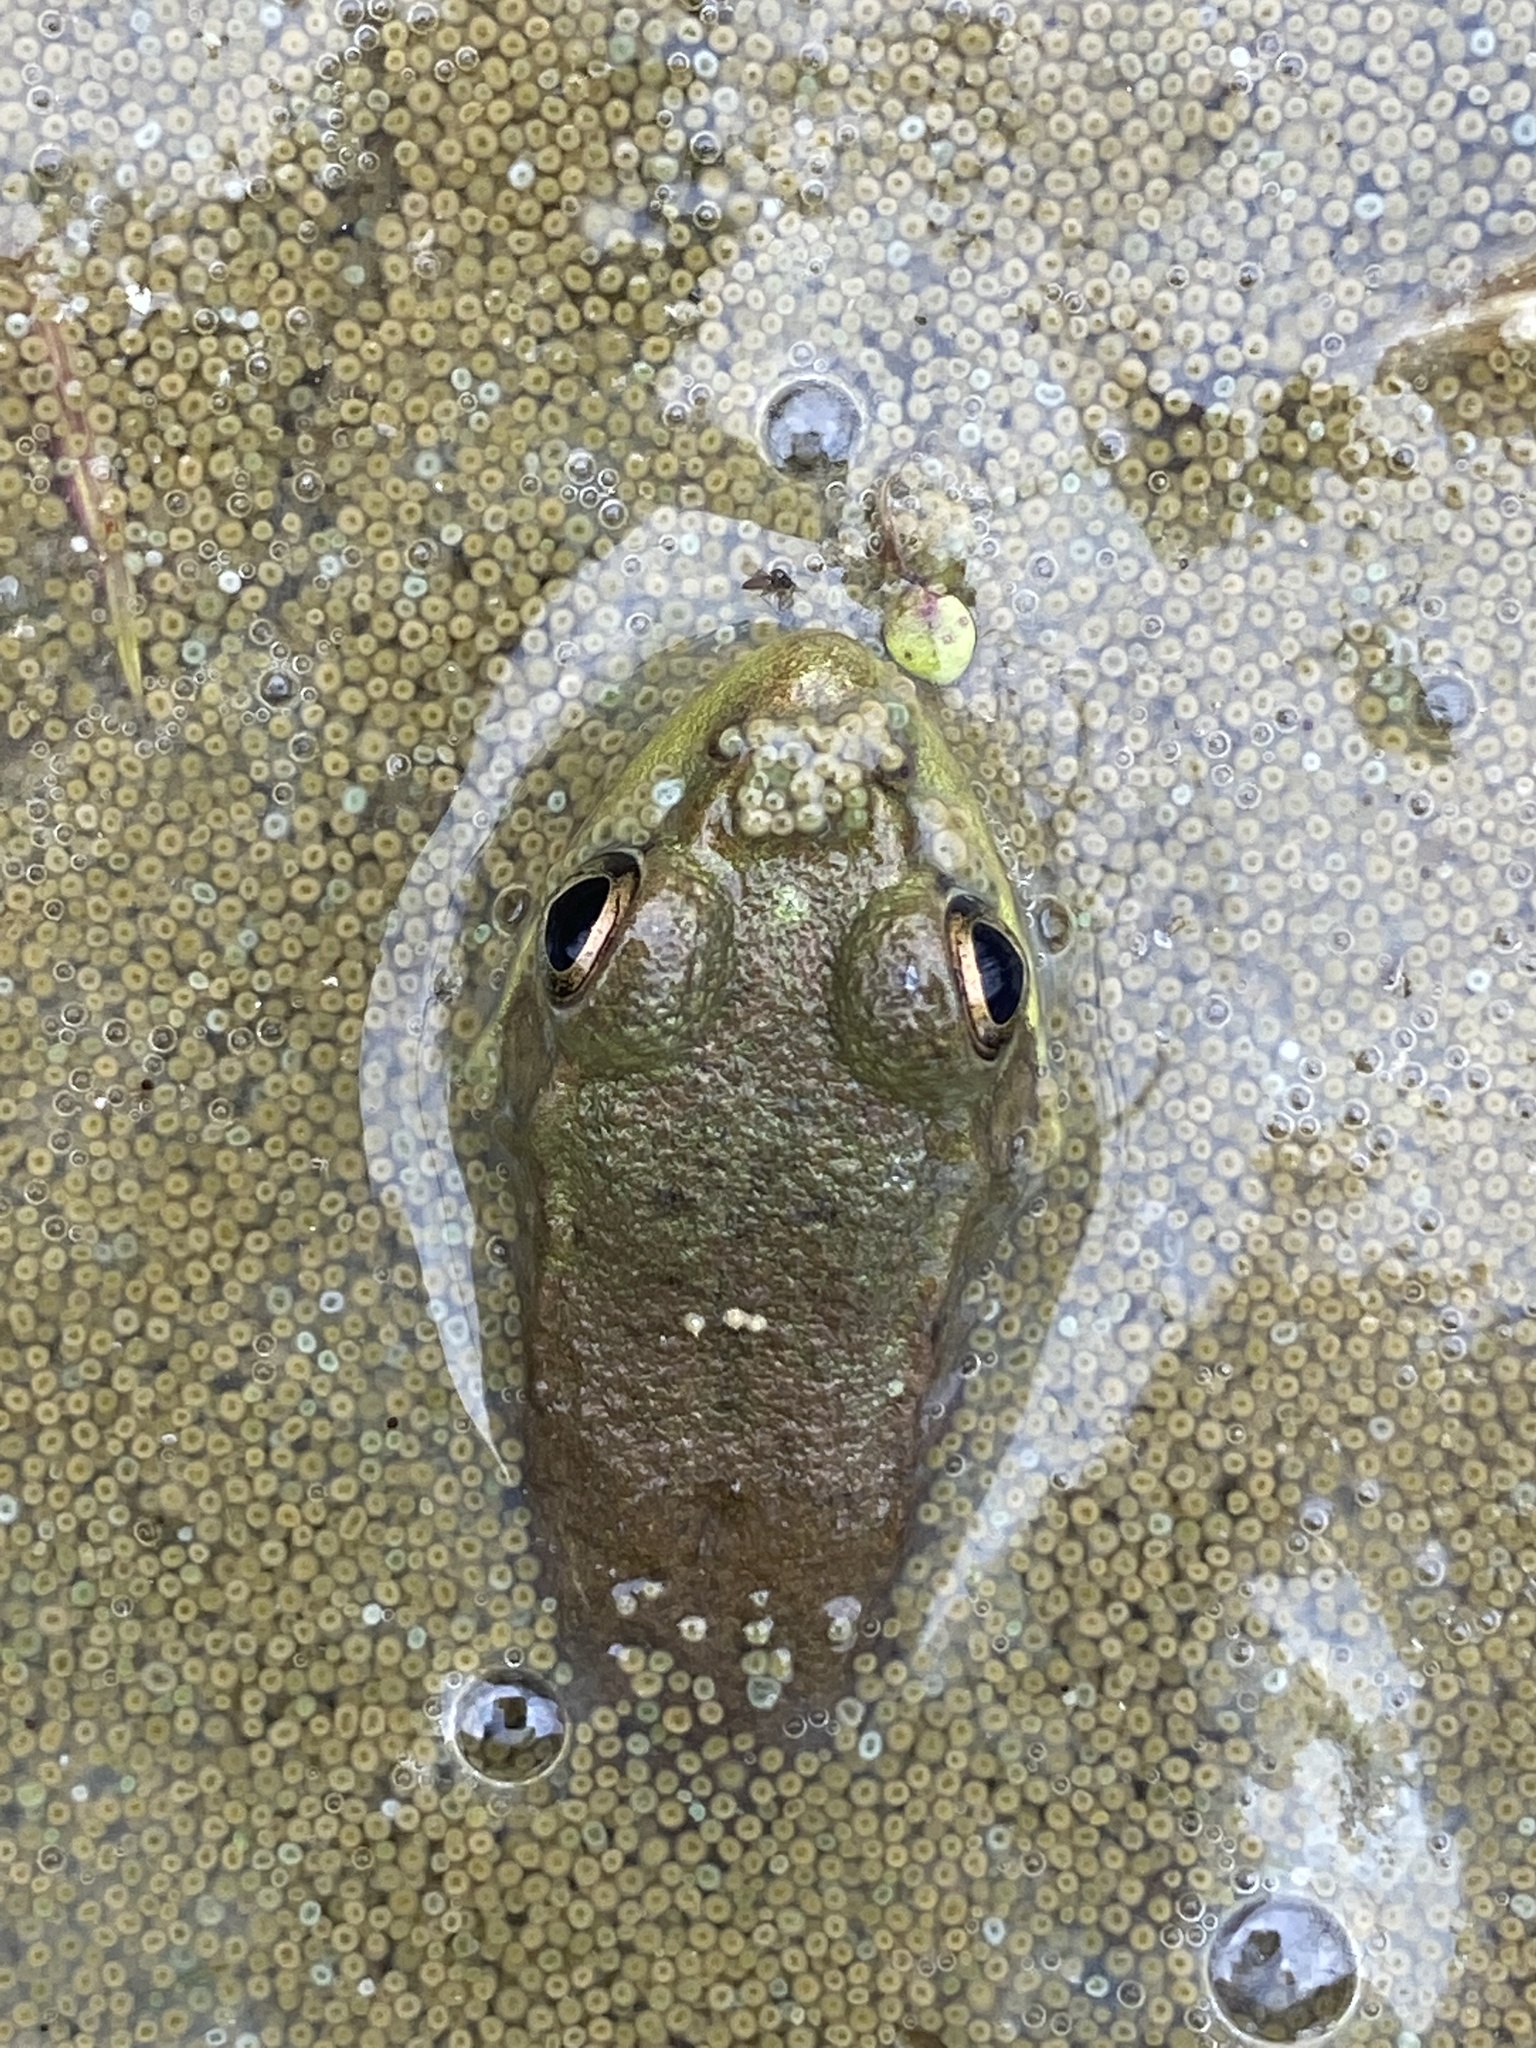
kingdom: Animalia
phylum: Chordata
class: Amphibia
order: Anura
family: Ranidae
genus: Lithobates
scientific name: Lithobates clamitans
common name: Green frog
